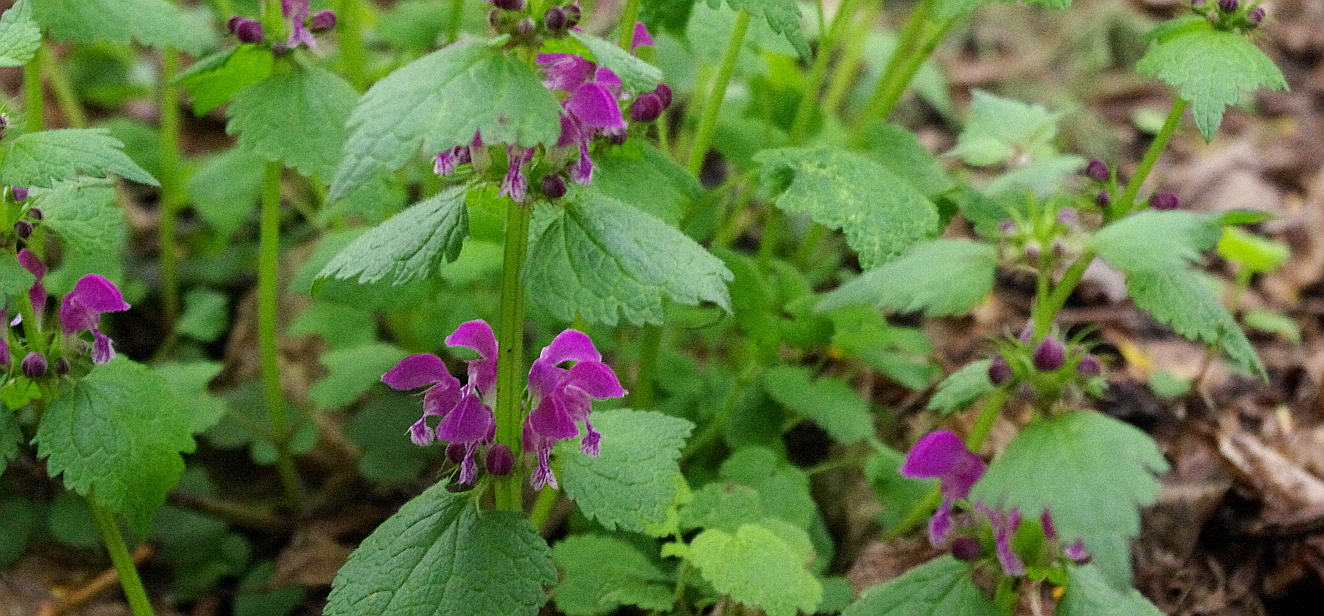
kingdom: Plantae
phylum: Tracheophyta
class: Magnoliopsida
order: Lamiales
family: Lamiaceae
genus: Lamium
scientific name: Lamium maculatum
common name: Spotted dead-nettle
